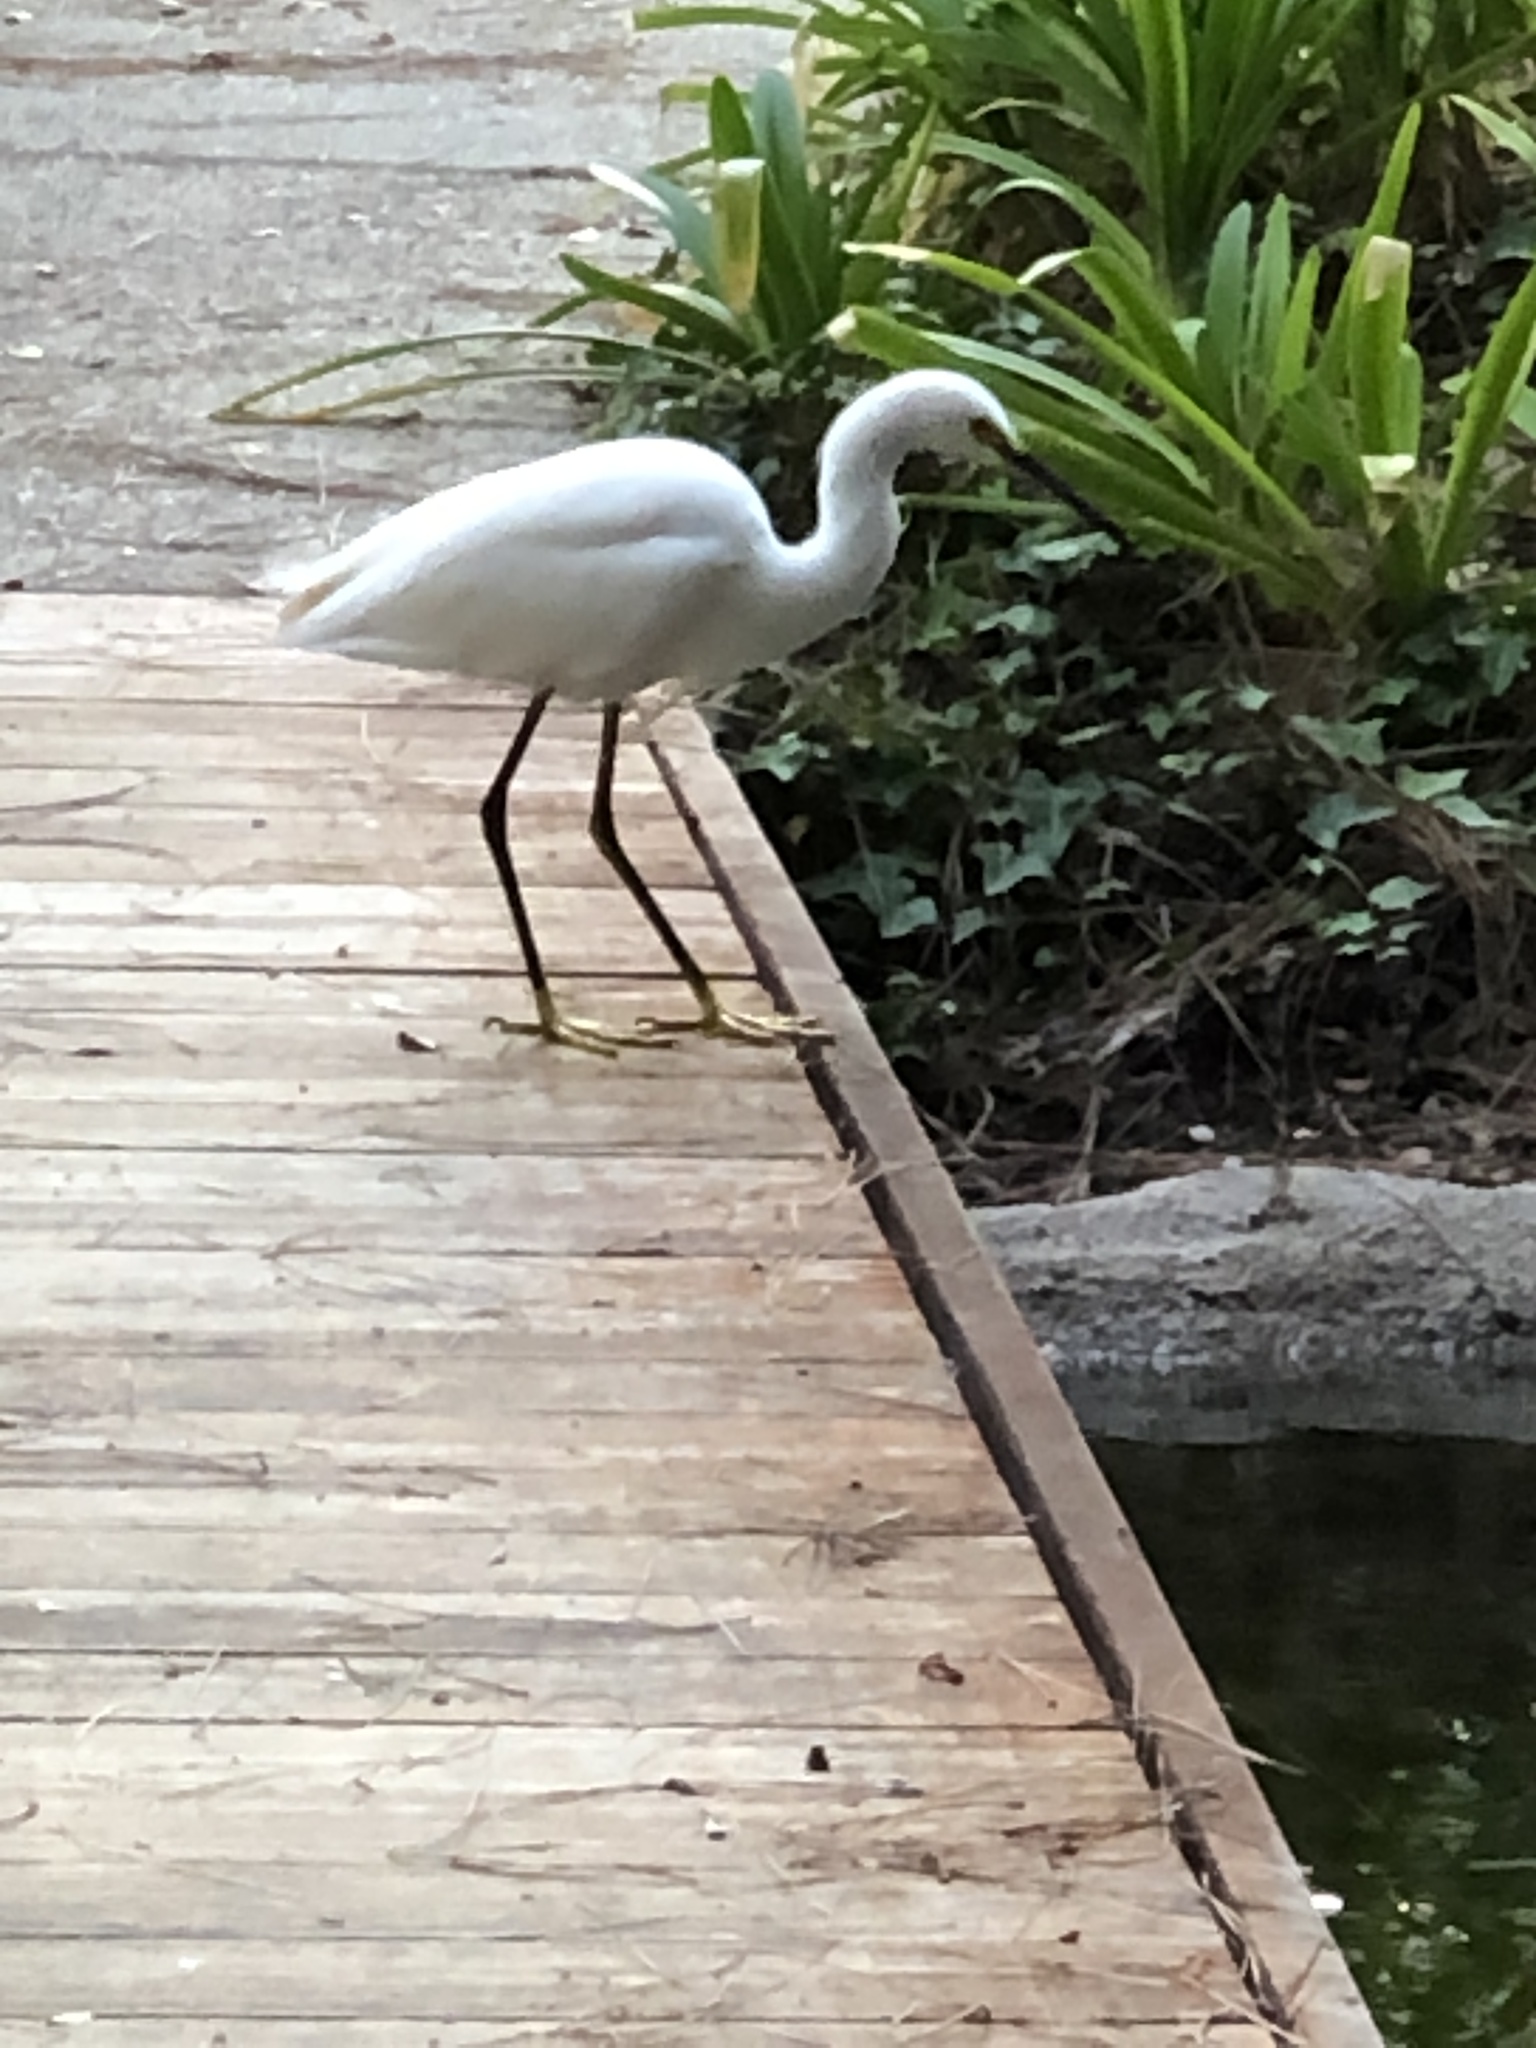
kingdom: Animalia
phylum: Chordata
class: Aves
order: Pelecaniformes
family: Ardeidae
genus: Egretta
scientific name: Egretta thula
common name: Snowy egret
